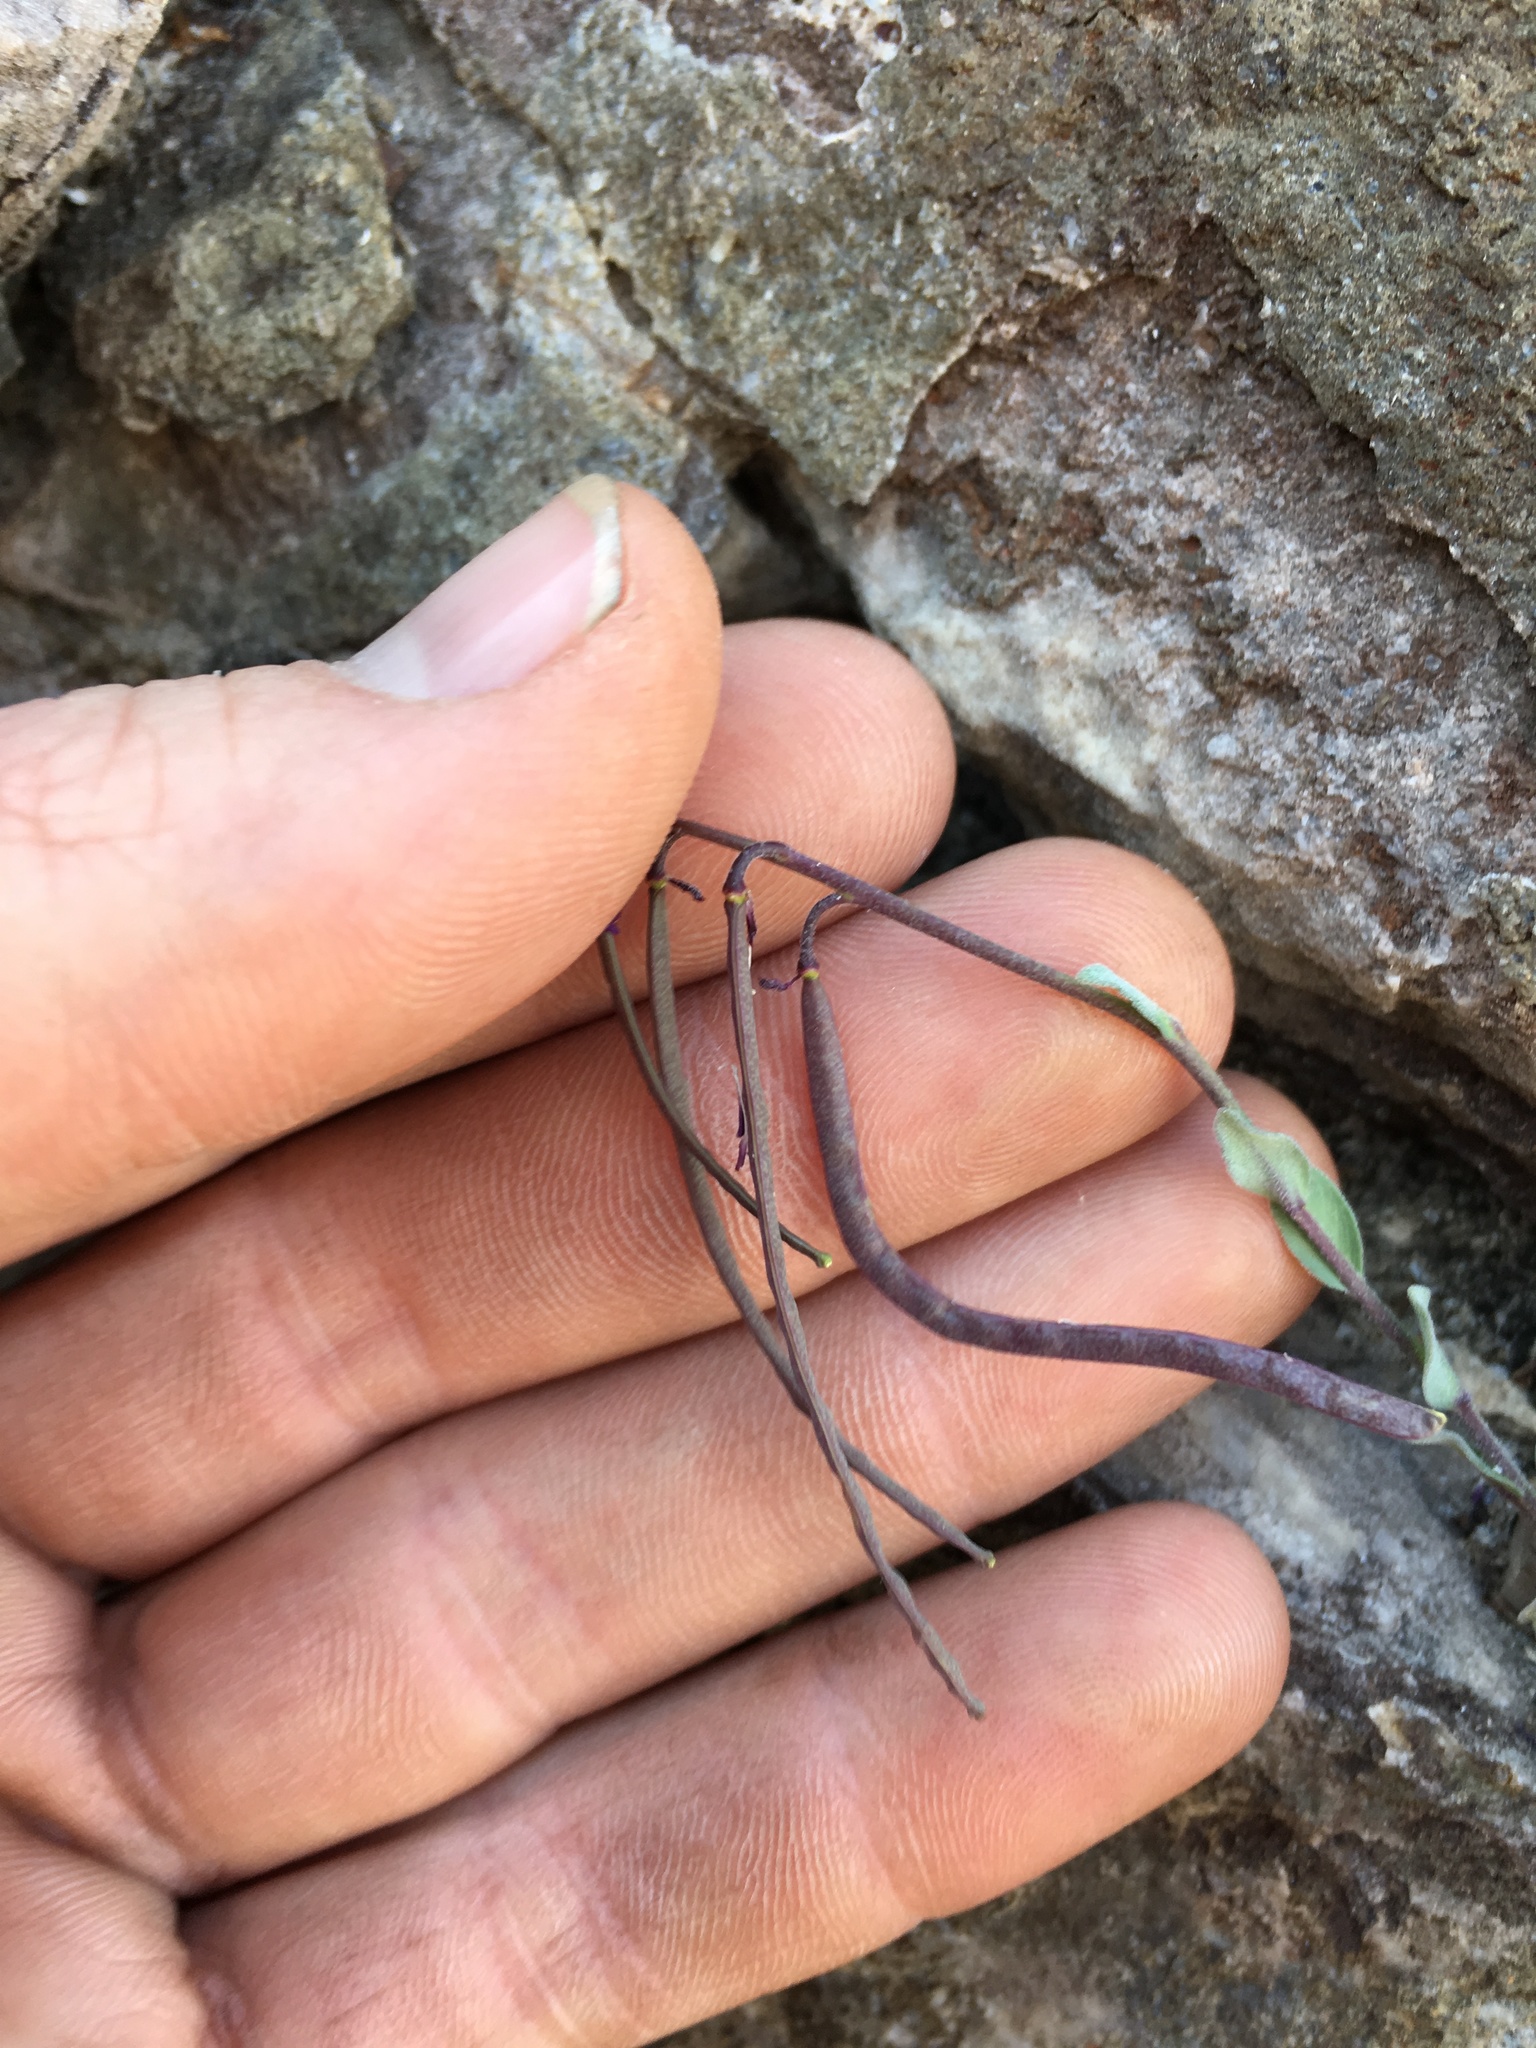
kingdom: Plantae
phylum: Tracheophyta
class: Magnoliopsida
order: Brassicales
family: Brassicaceae
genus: Boechera
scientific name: Boechera lemmonii
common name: Lemmon's rockcress
